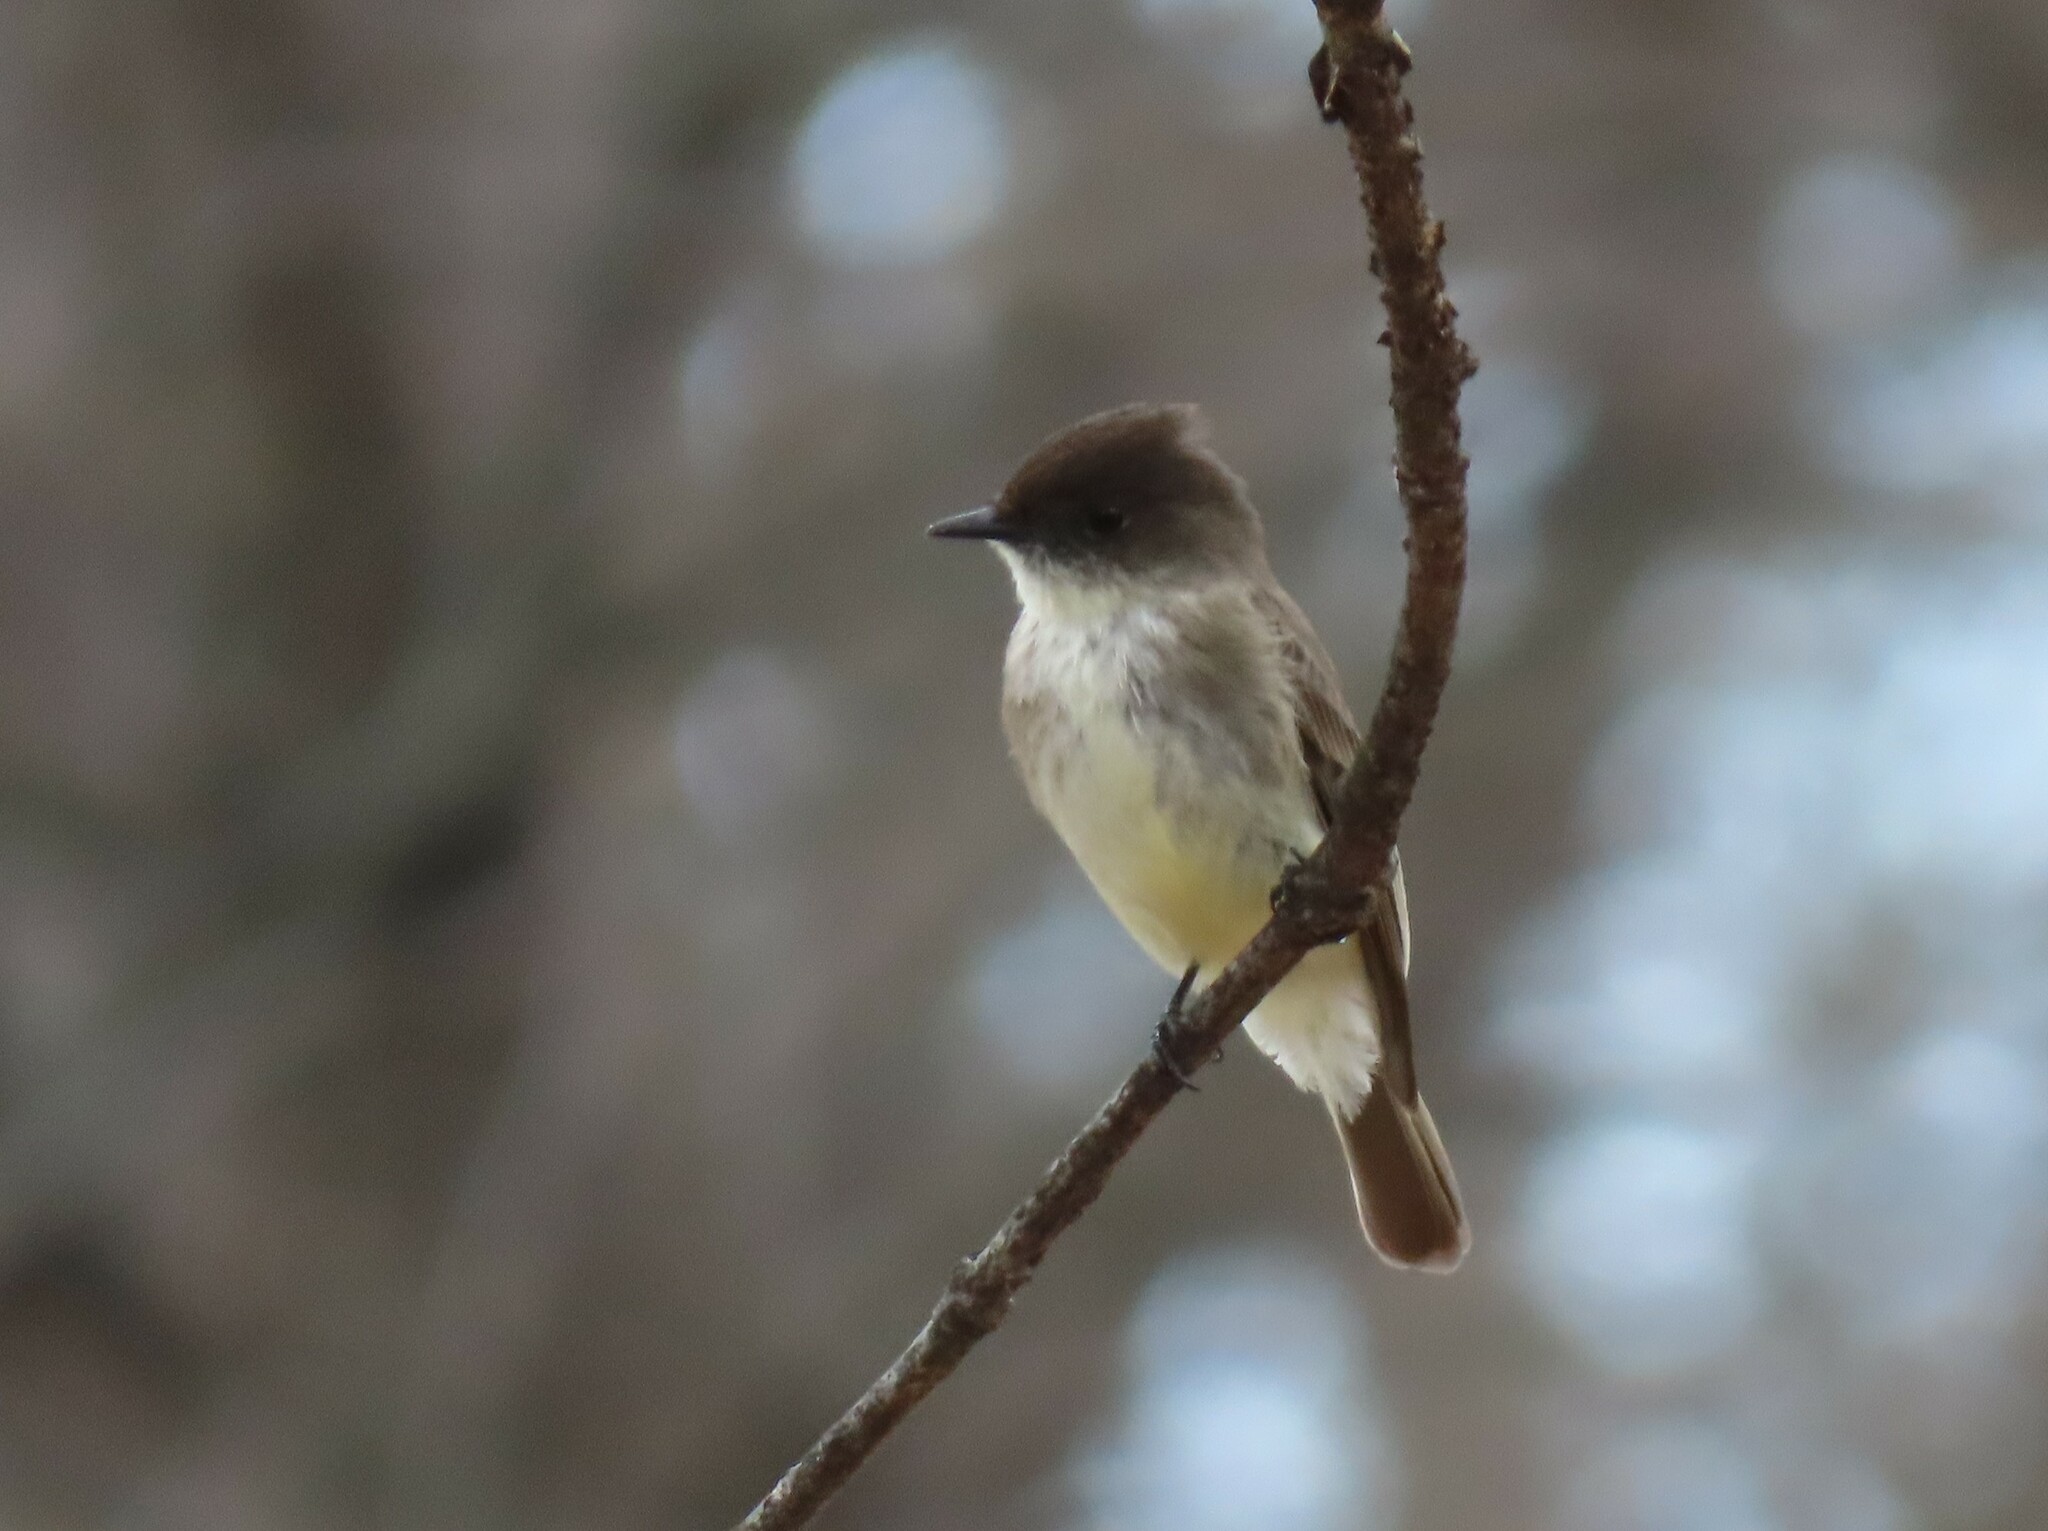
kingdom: Animalia
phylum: Chordata
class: Aves
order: Passeriformes
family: Tyrannidae
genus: Sayornis
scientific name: Sayornis phoebe
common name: Eastern phoebe
